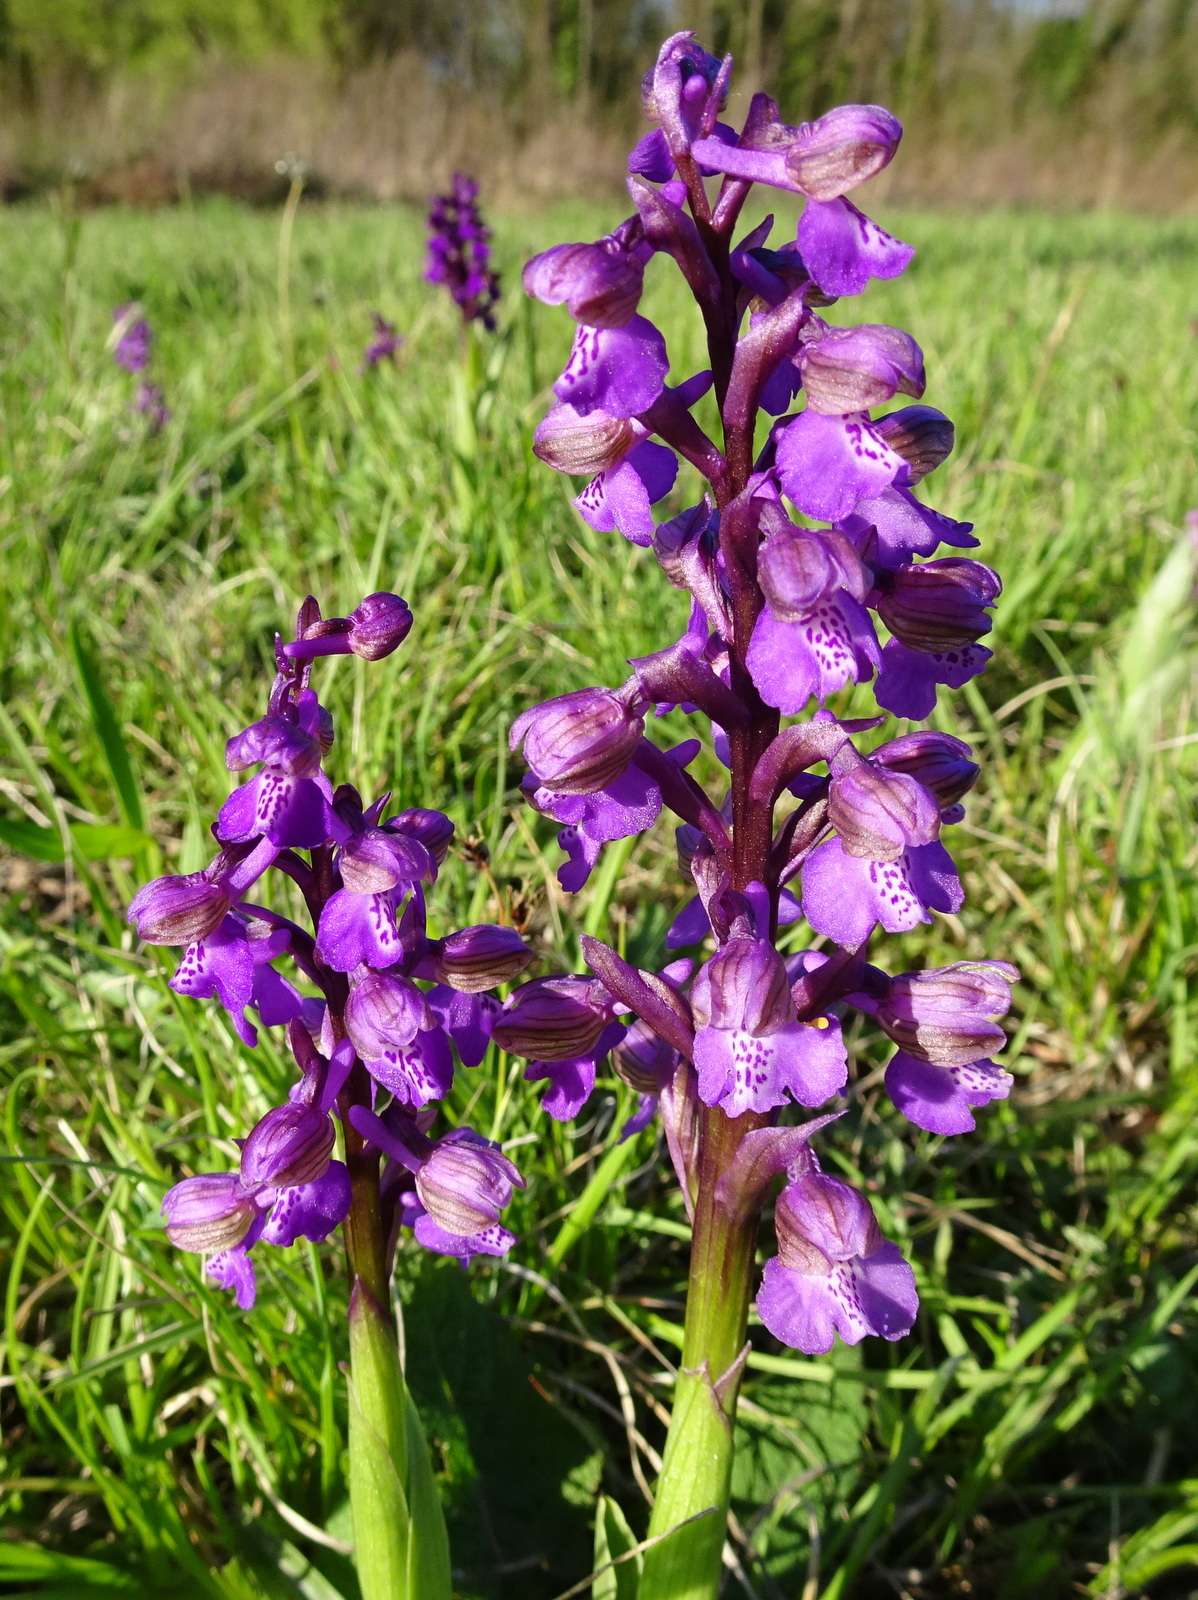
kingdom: Plantae
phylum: Tracheophyta
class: Liliopsida
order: Asparagales
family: Orchidaceae
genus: Anacamptis
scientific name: Anacamptis morio
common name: Green-winged orchid
